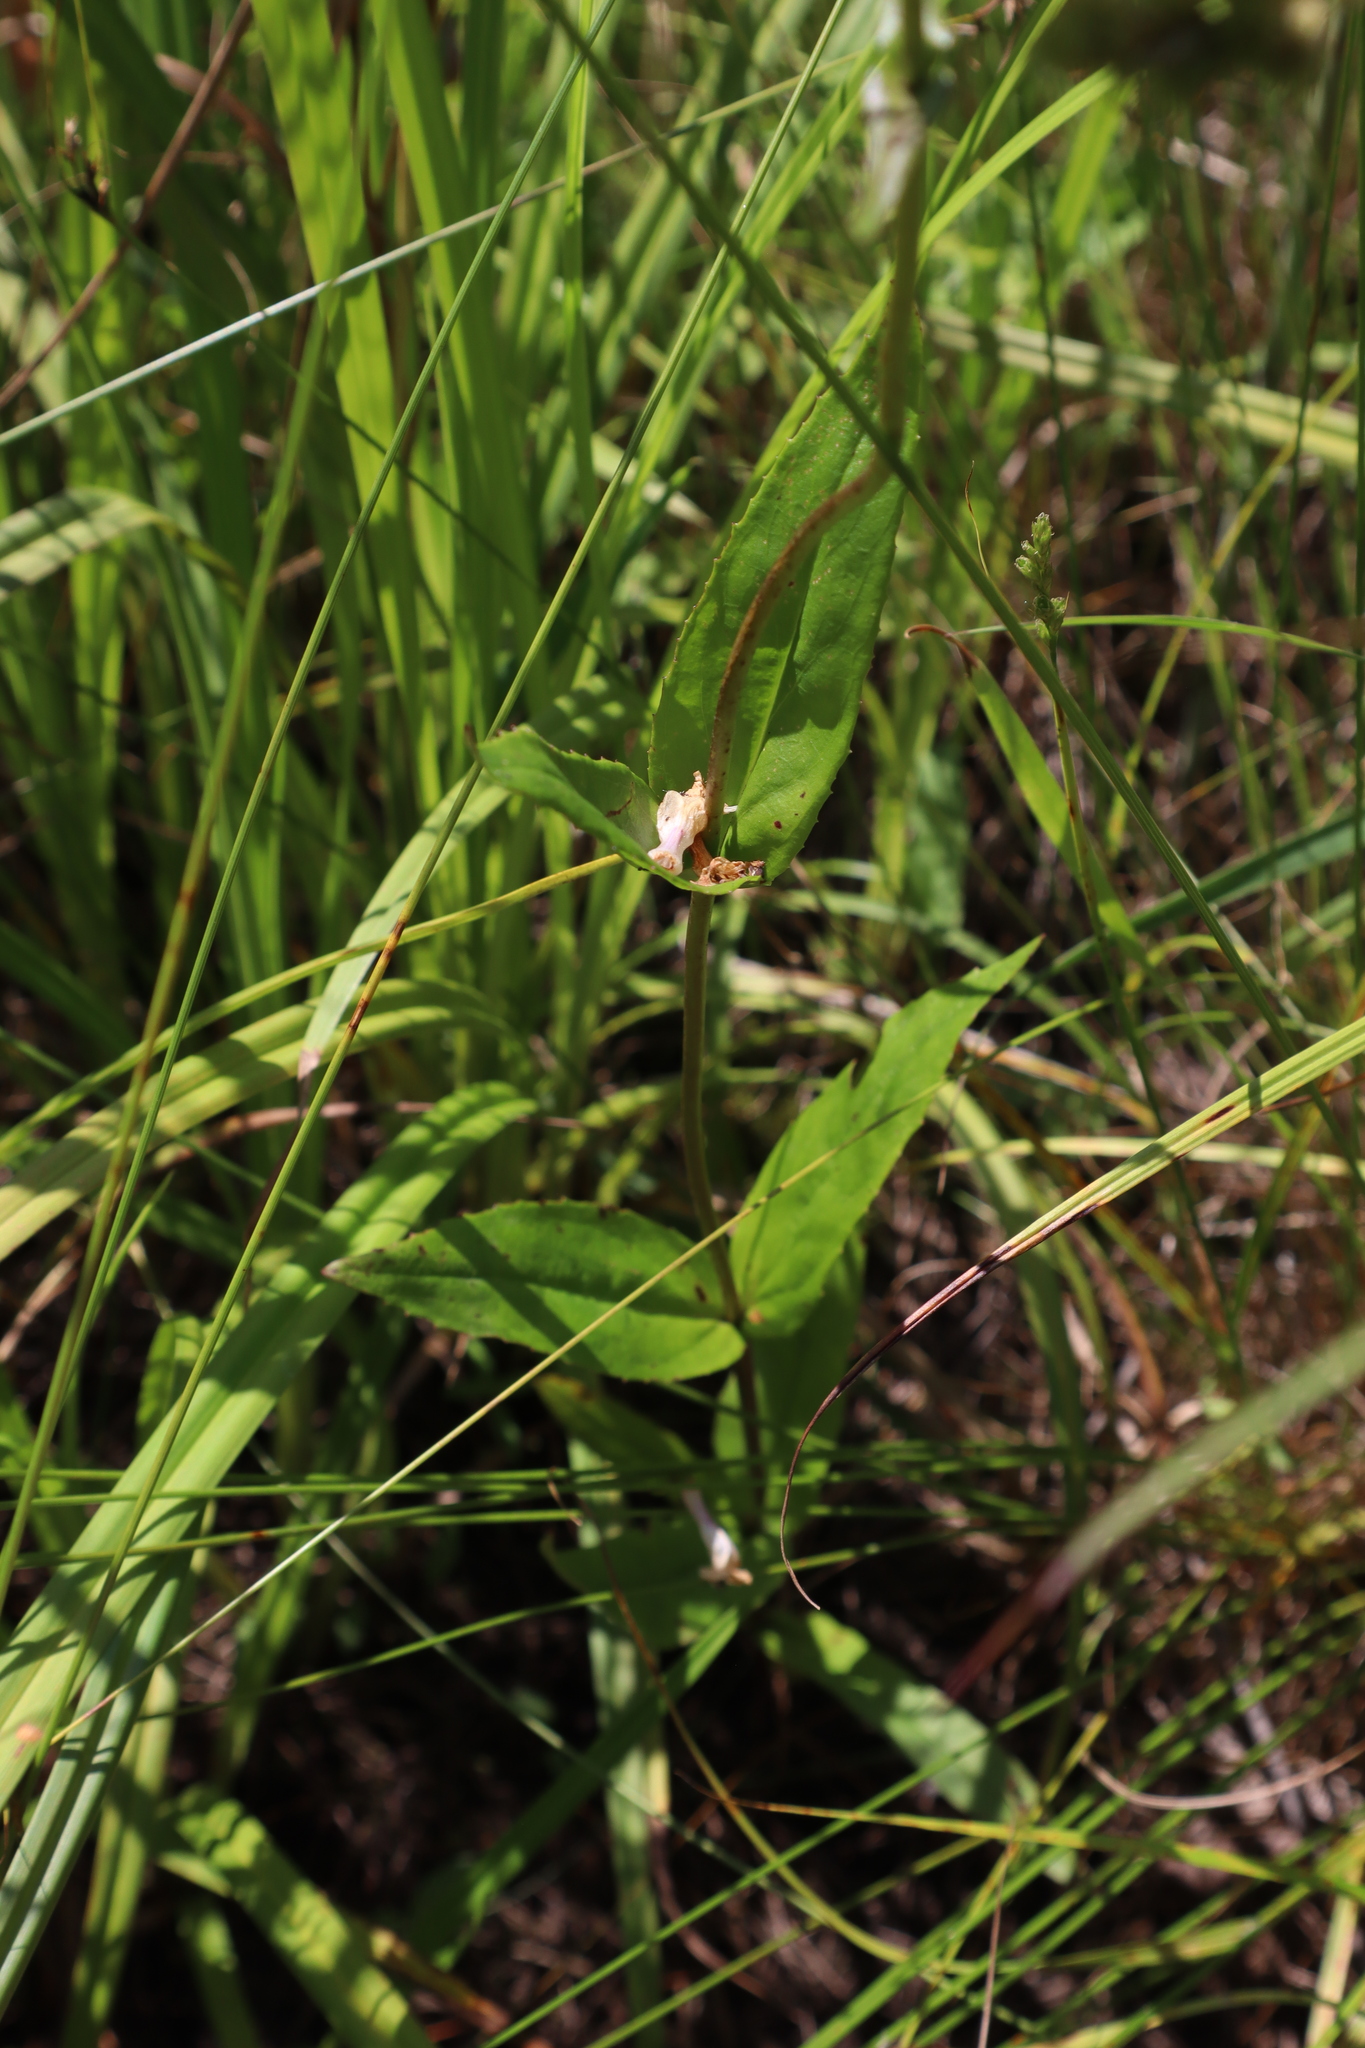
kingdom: Plantae
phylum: Tracheophyta
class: Magnoliopsida
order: Lamiales
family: Plantaginaceae
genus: Penstemon
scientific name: Penstemon digitalis
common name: Foxglove beardtongue
